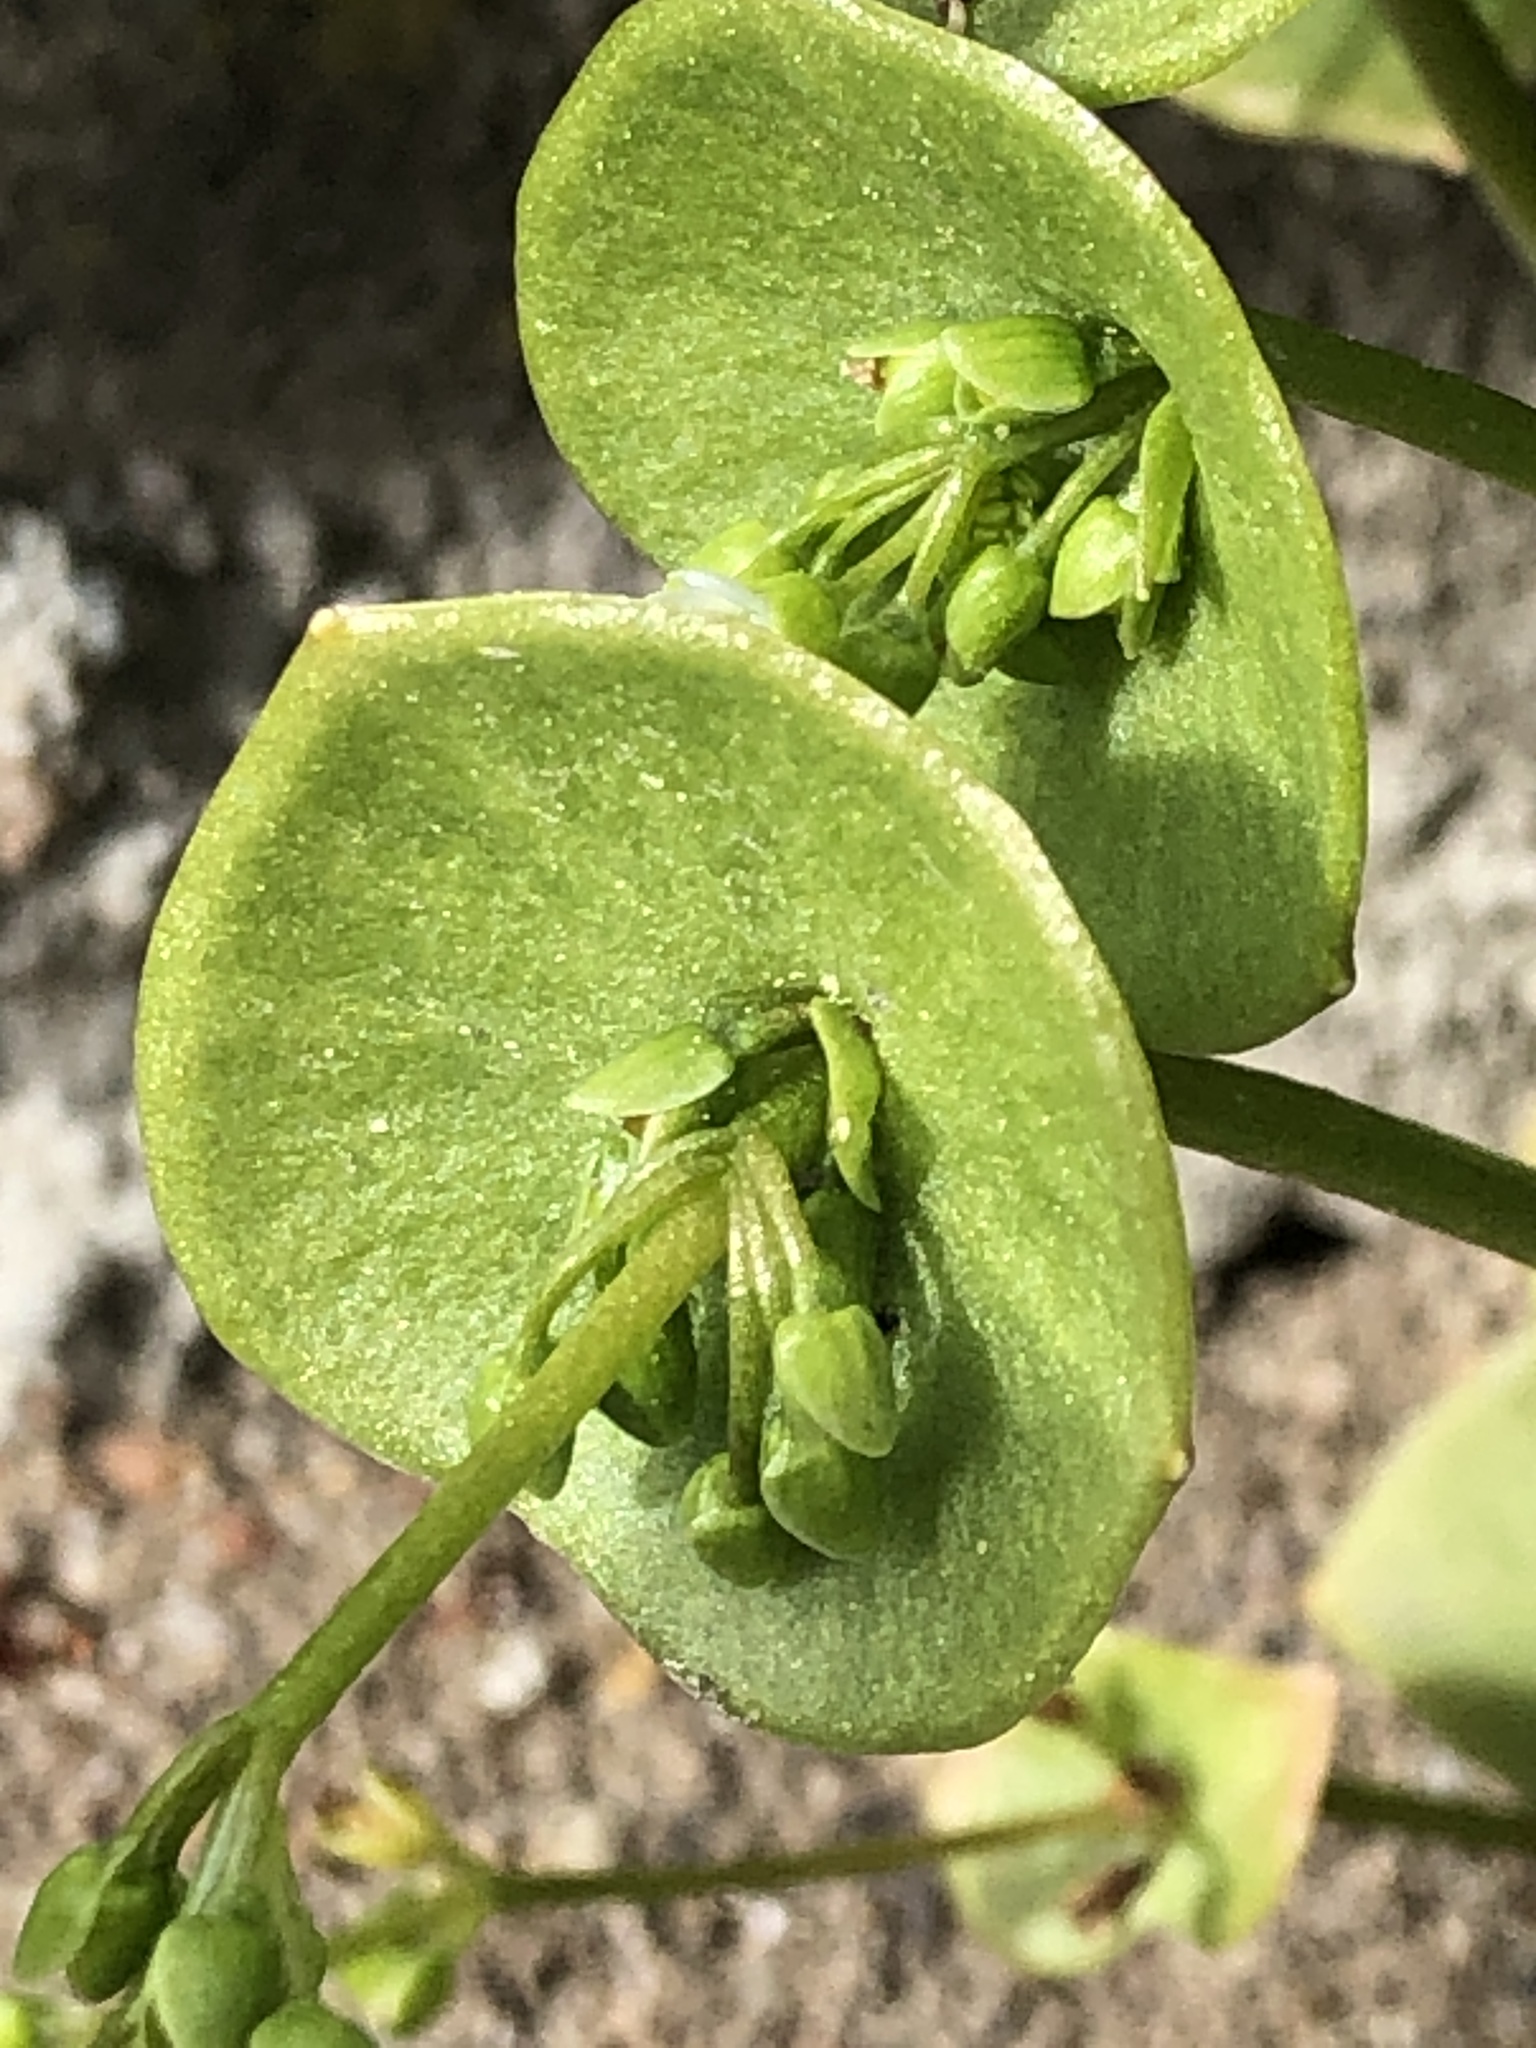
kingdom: Plantae
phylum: Tracheophyta
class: Magnoliopsida
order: Caryophyllales
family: Montiaceae
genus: Claytonia
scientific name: Claytonia perfoliata
